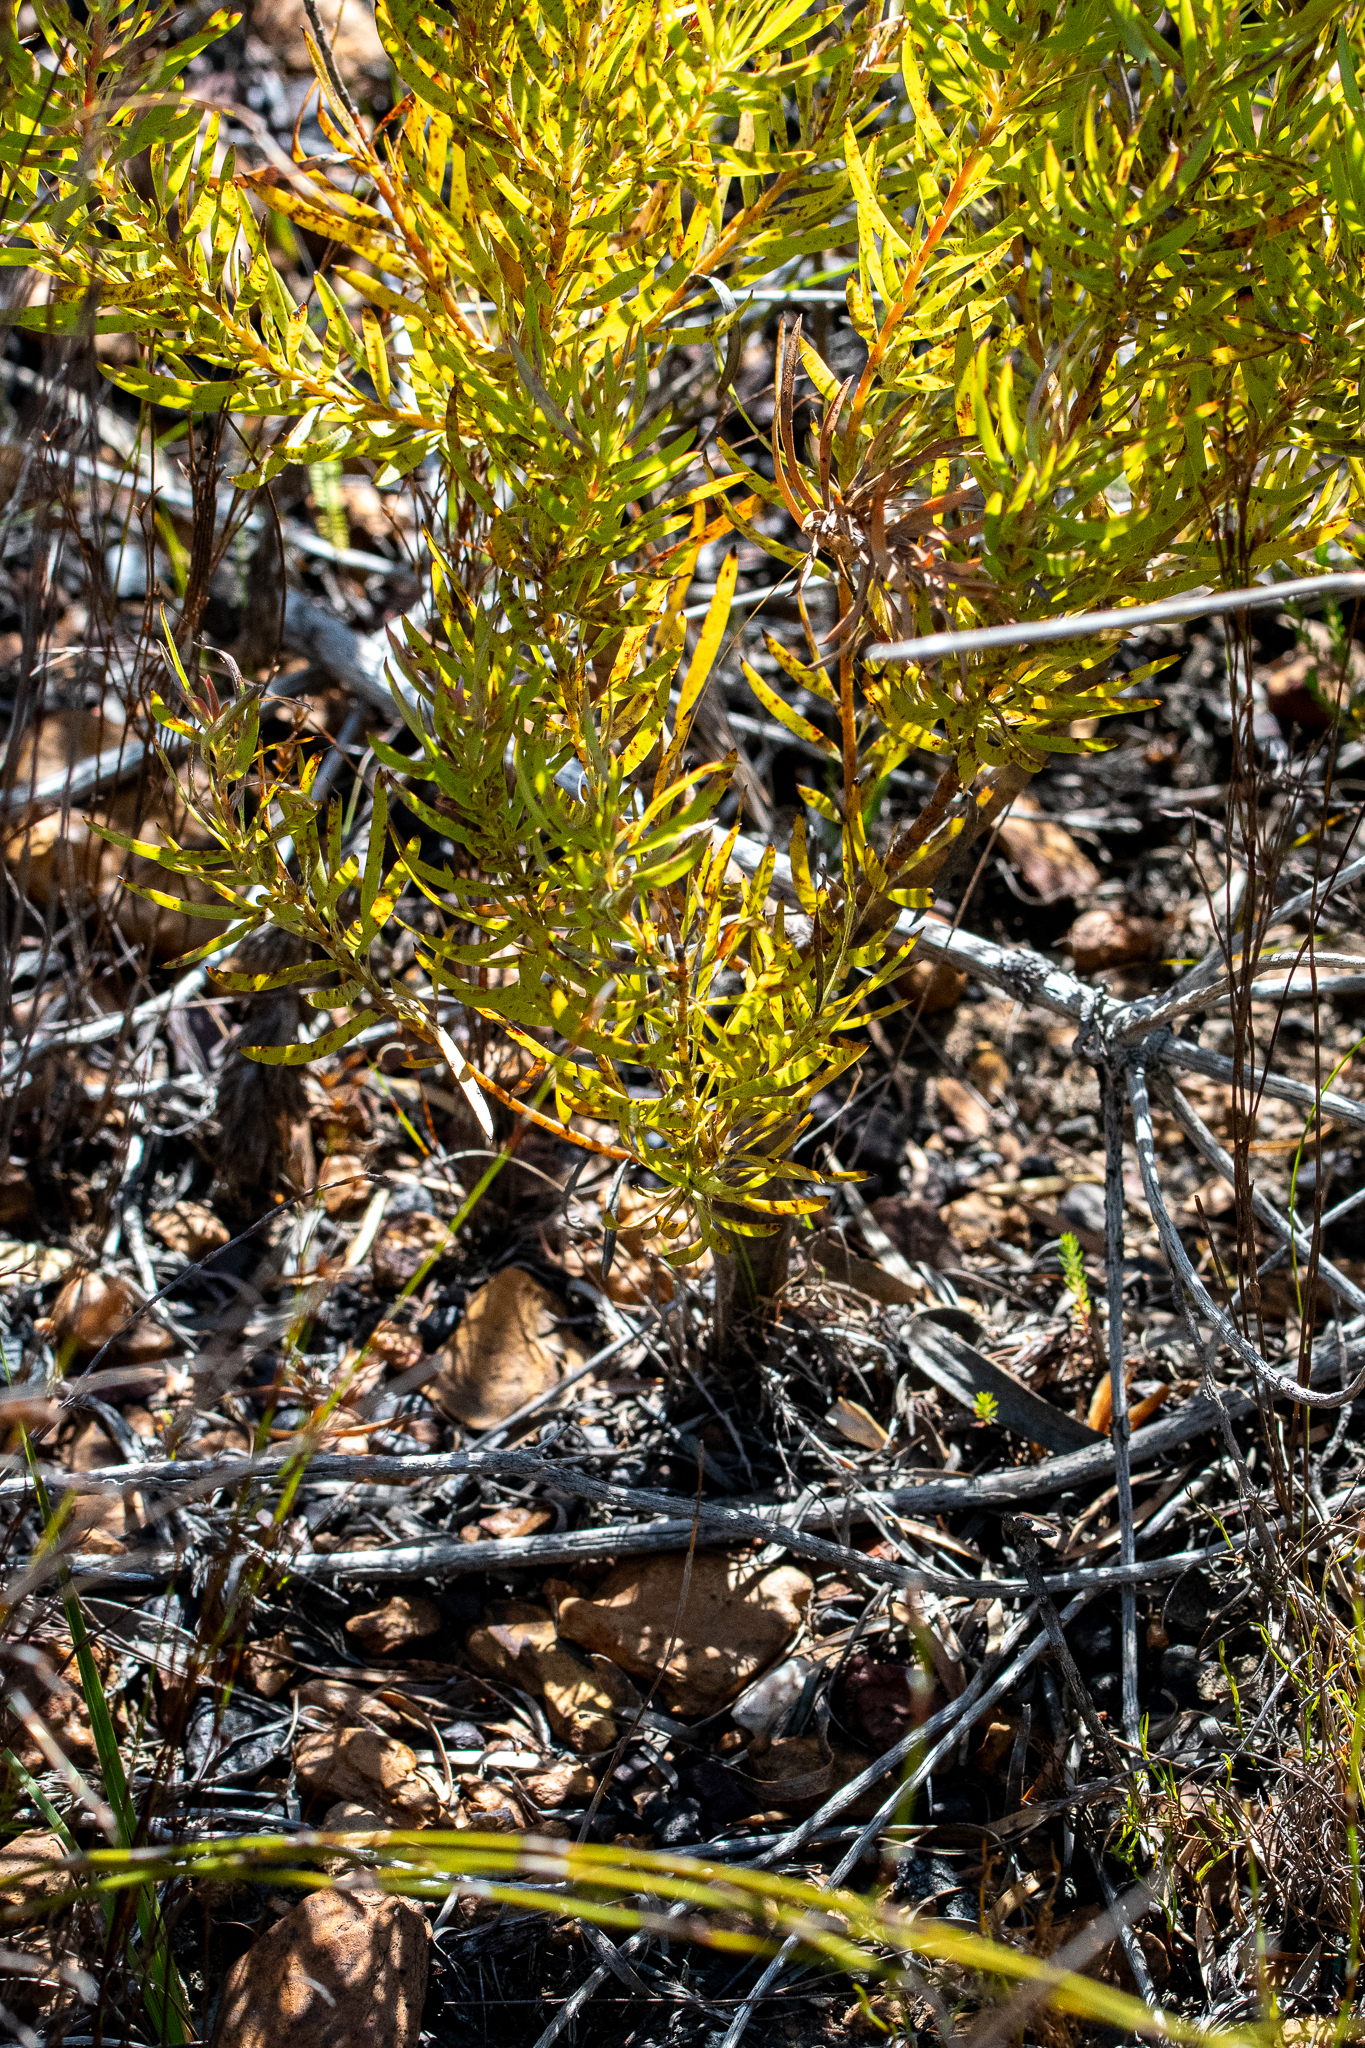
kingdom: Plantae
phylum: Tracheophyta
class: Magnoliopsida
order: Proteales
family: Proteaceae
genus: Leucadendron
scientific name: Leucadendron xanthoconus
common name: Sickle-leaf conebush
